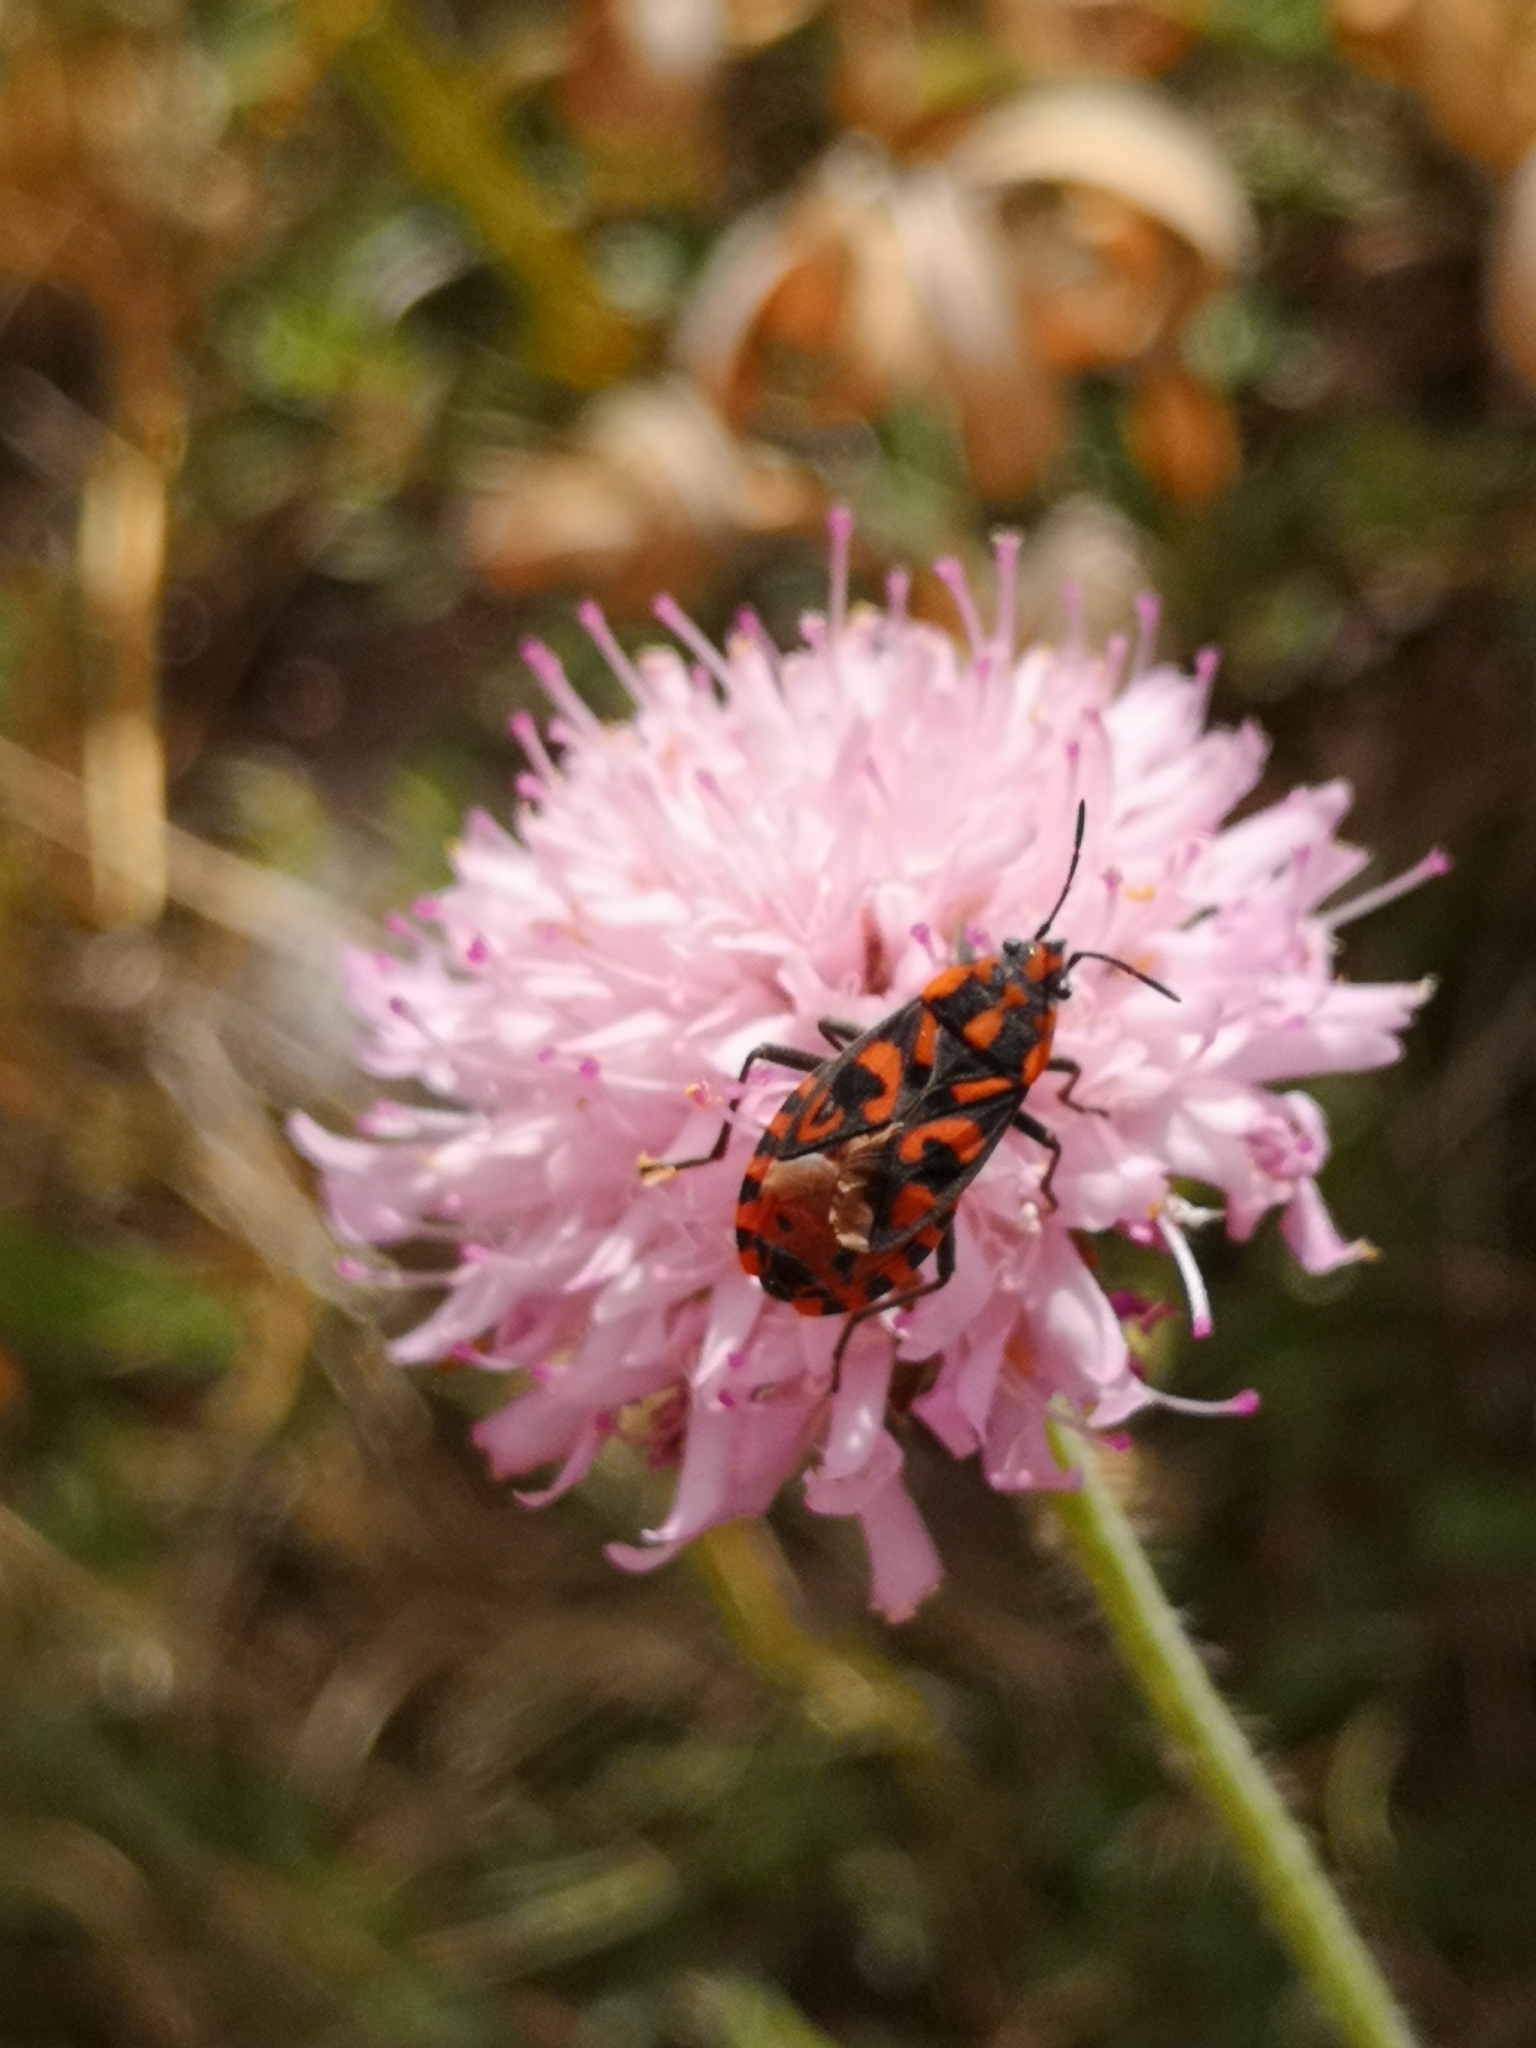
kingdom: Animalia
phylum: Arthropoda
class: Insecta
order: Hemiptera
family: Lygaeidae
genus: Spilostethus
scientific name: Spilostethus saxatilis
